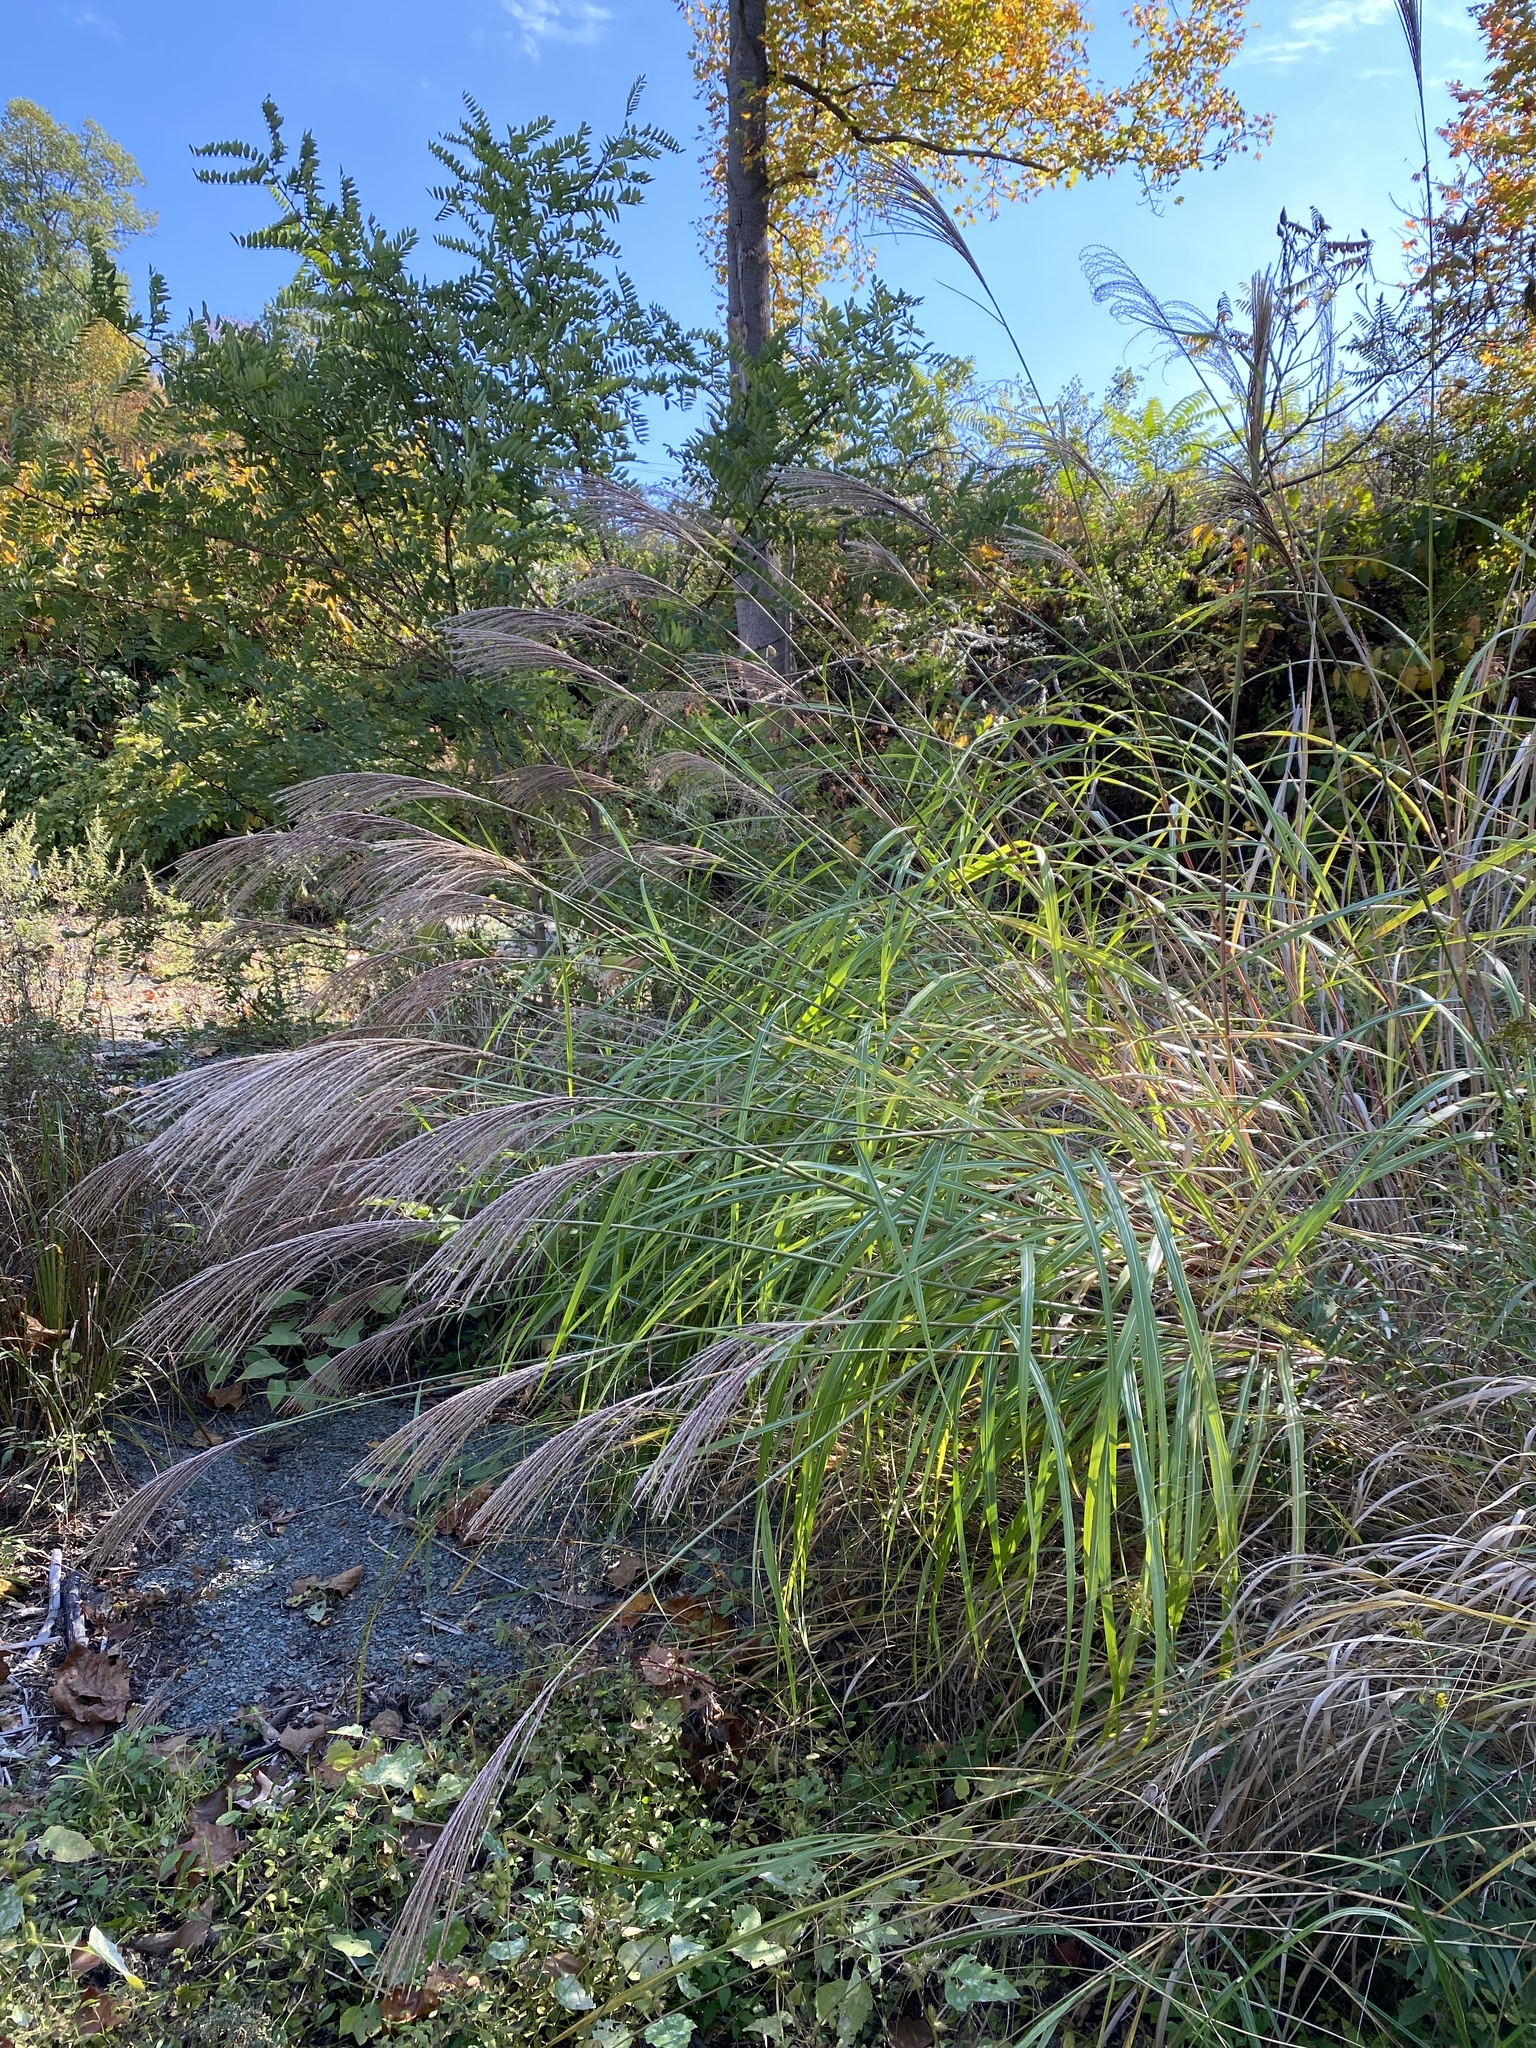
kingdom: Plantae
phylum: Tracheophyta
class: Liliopsida
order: Poales
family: Poaceae
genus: Miscanthus
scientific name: Miscanthus sinensis
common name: Chinese silvergrass
